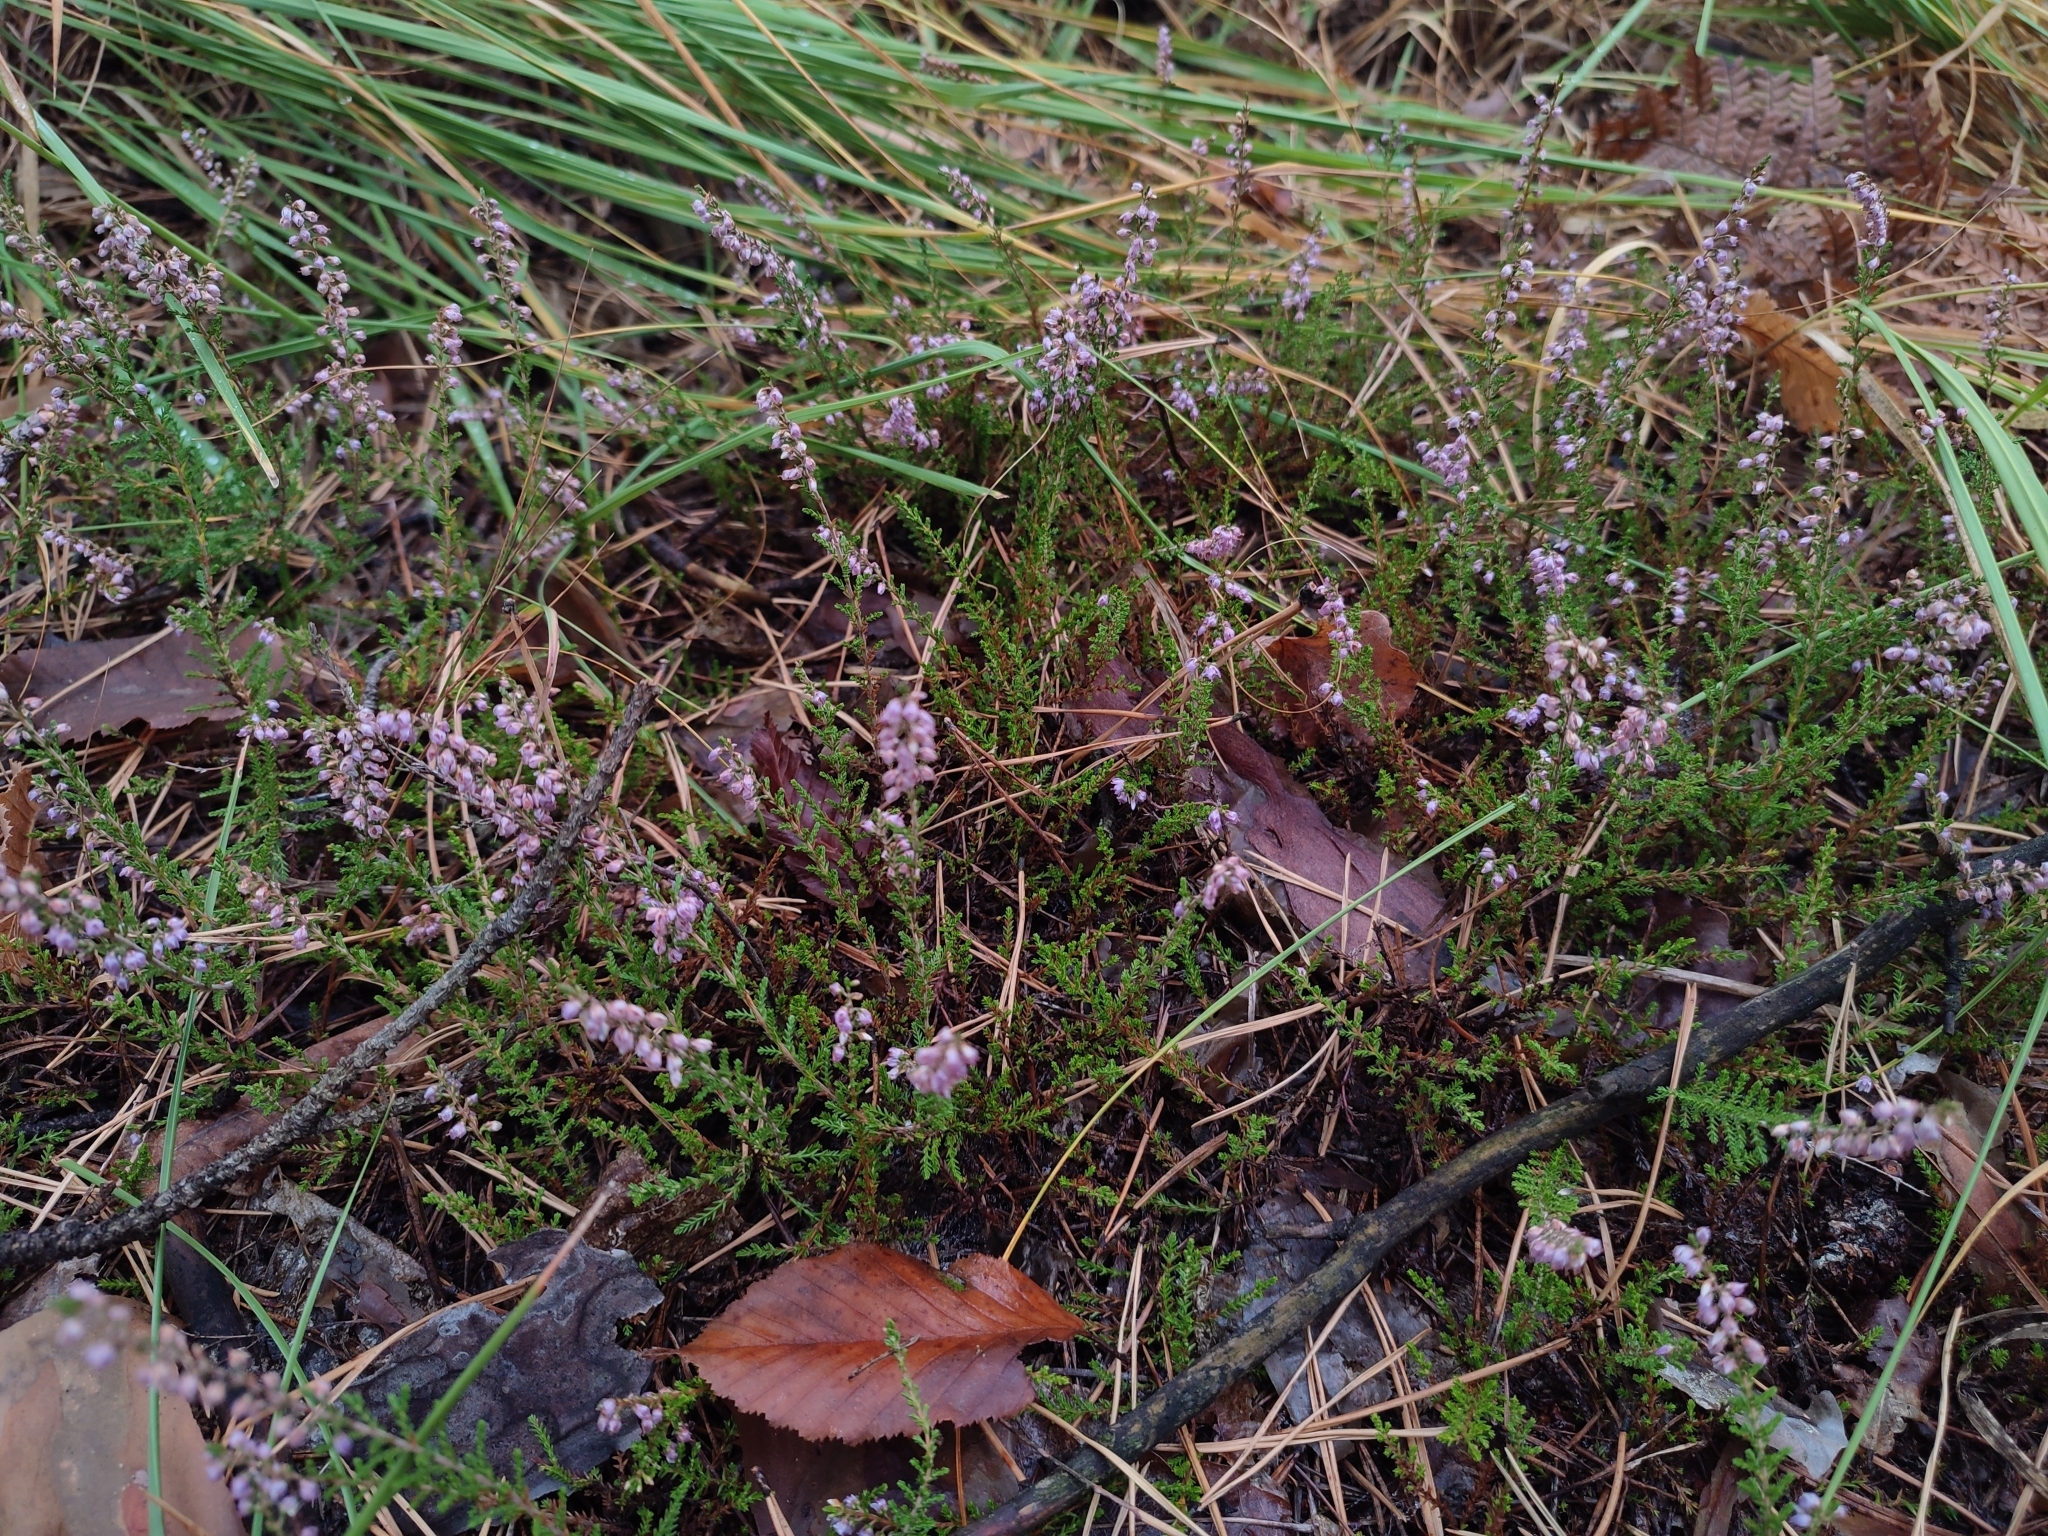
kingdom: Plantae
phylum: Tracheophyta
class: Magnoliopsida
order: Ericales
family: Ericaceae
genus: Calluna
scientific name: Calluna vulgaris
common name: Heather
